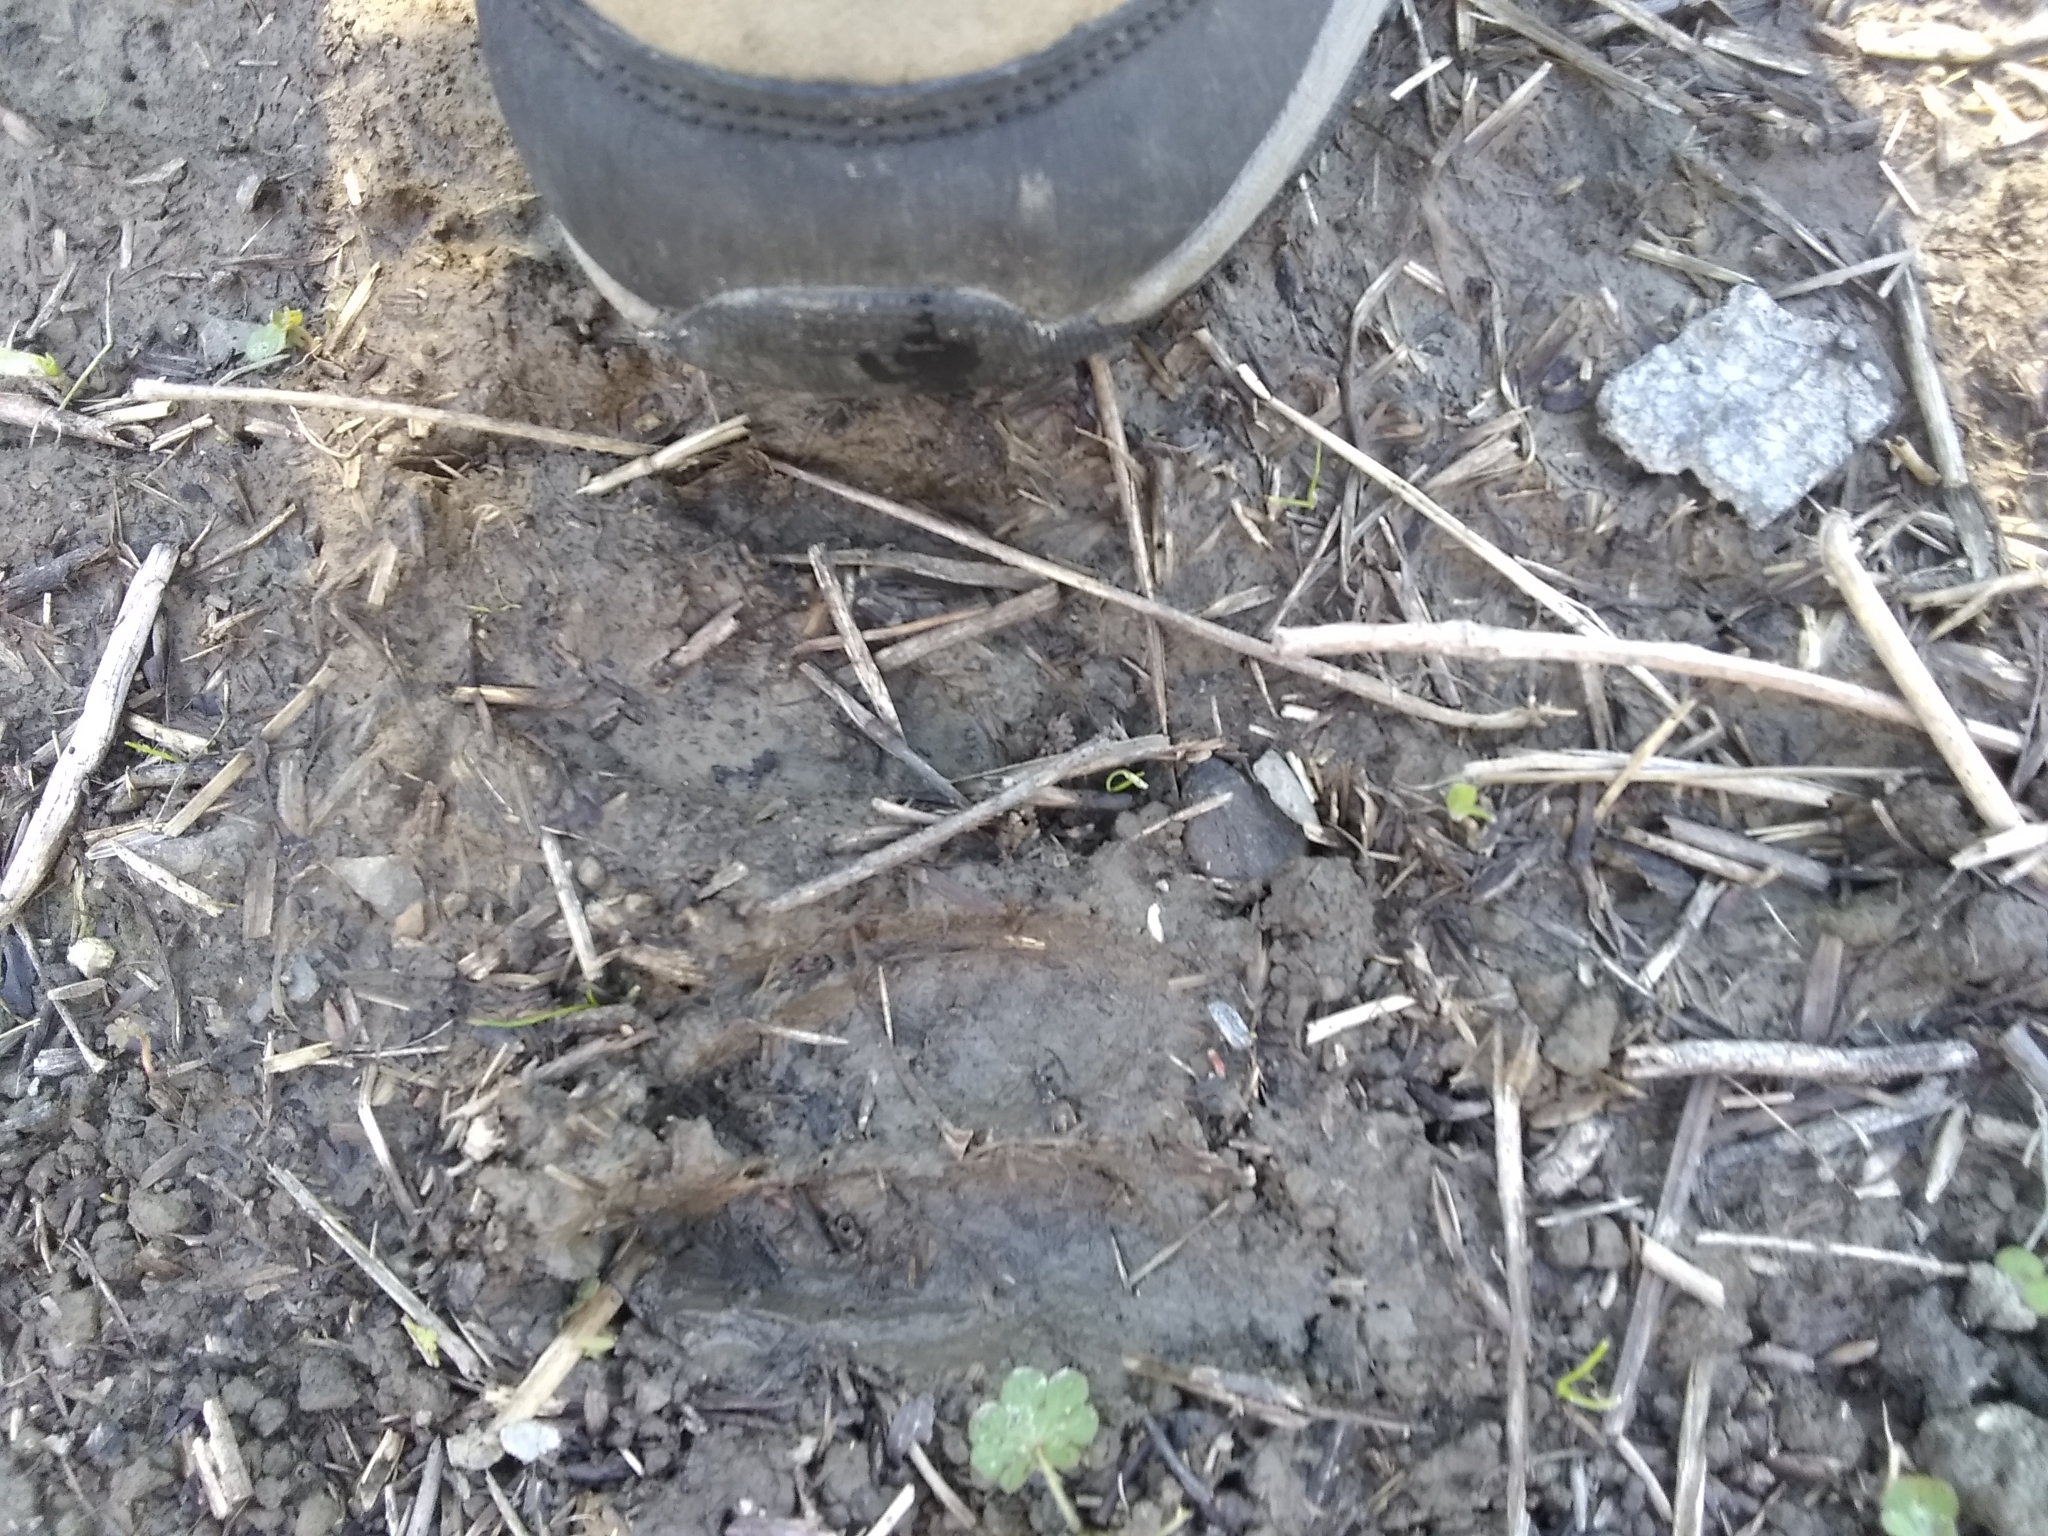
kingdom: Animalia
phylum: Chordata
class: Mammalia
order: Artiodactyla
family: Cervidae
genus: Odocoileus
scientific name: Odocoileus hemionus
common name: Mule deer
